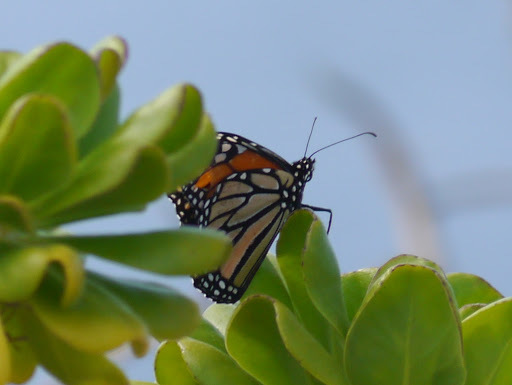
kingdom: Animalia
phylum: Arthropoda
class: Insecta
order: Lepidoptera
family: Nymphalidae
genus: Danaus
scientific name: Danaus plexippus
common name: Monarch
